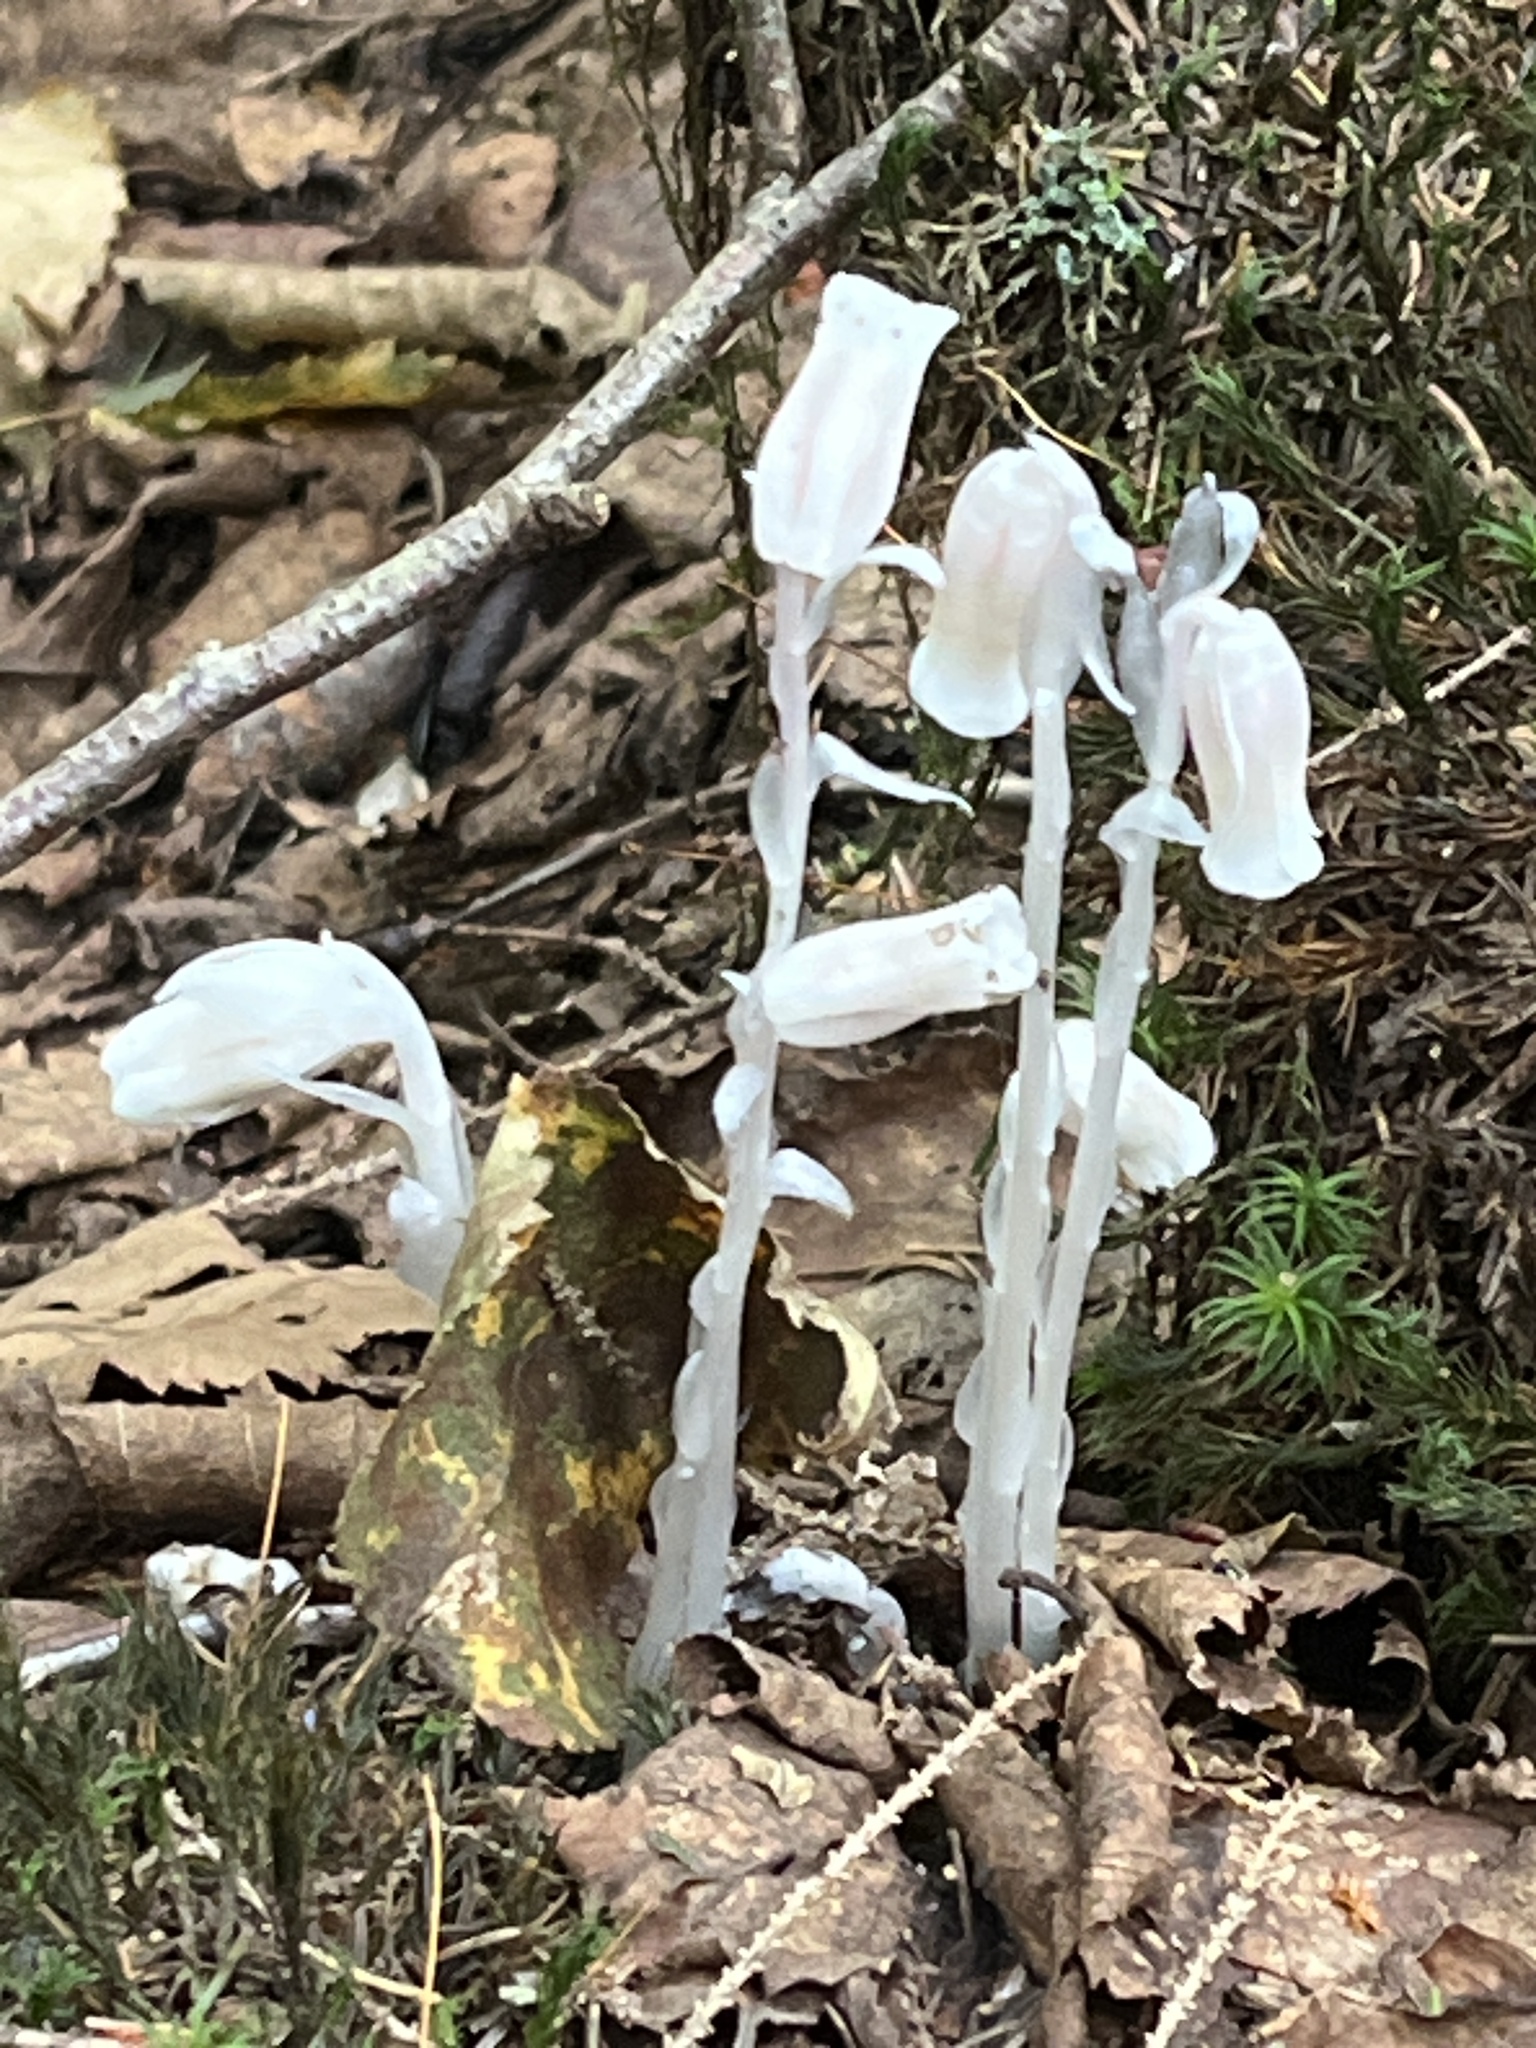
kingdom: Plantae
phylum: Tracheophyta
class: Magnoliopsida
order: Ericales
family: Ericaceae
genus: Monotropa
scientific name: Monotropa uniflora
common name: Convulsion root
